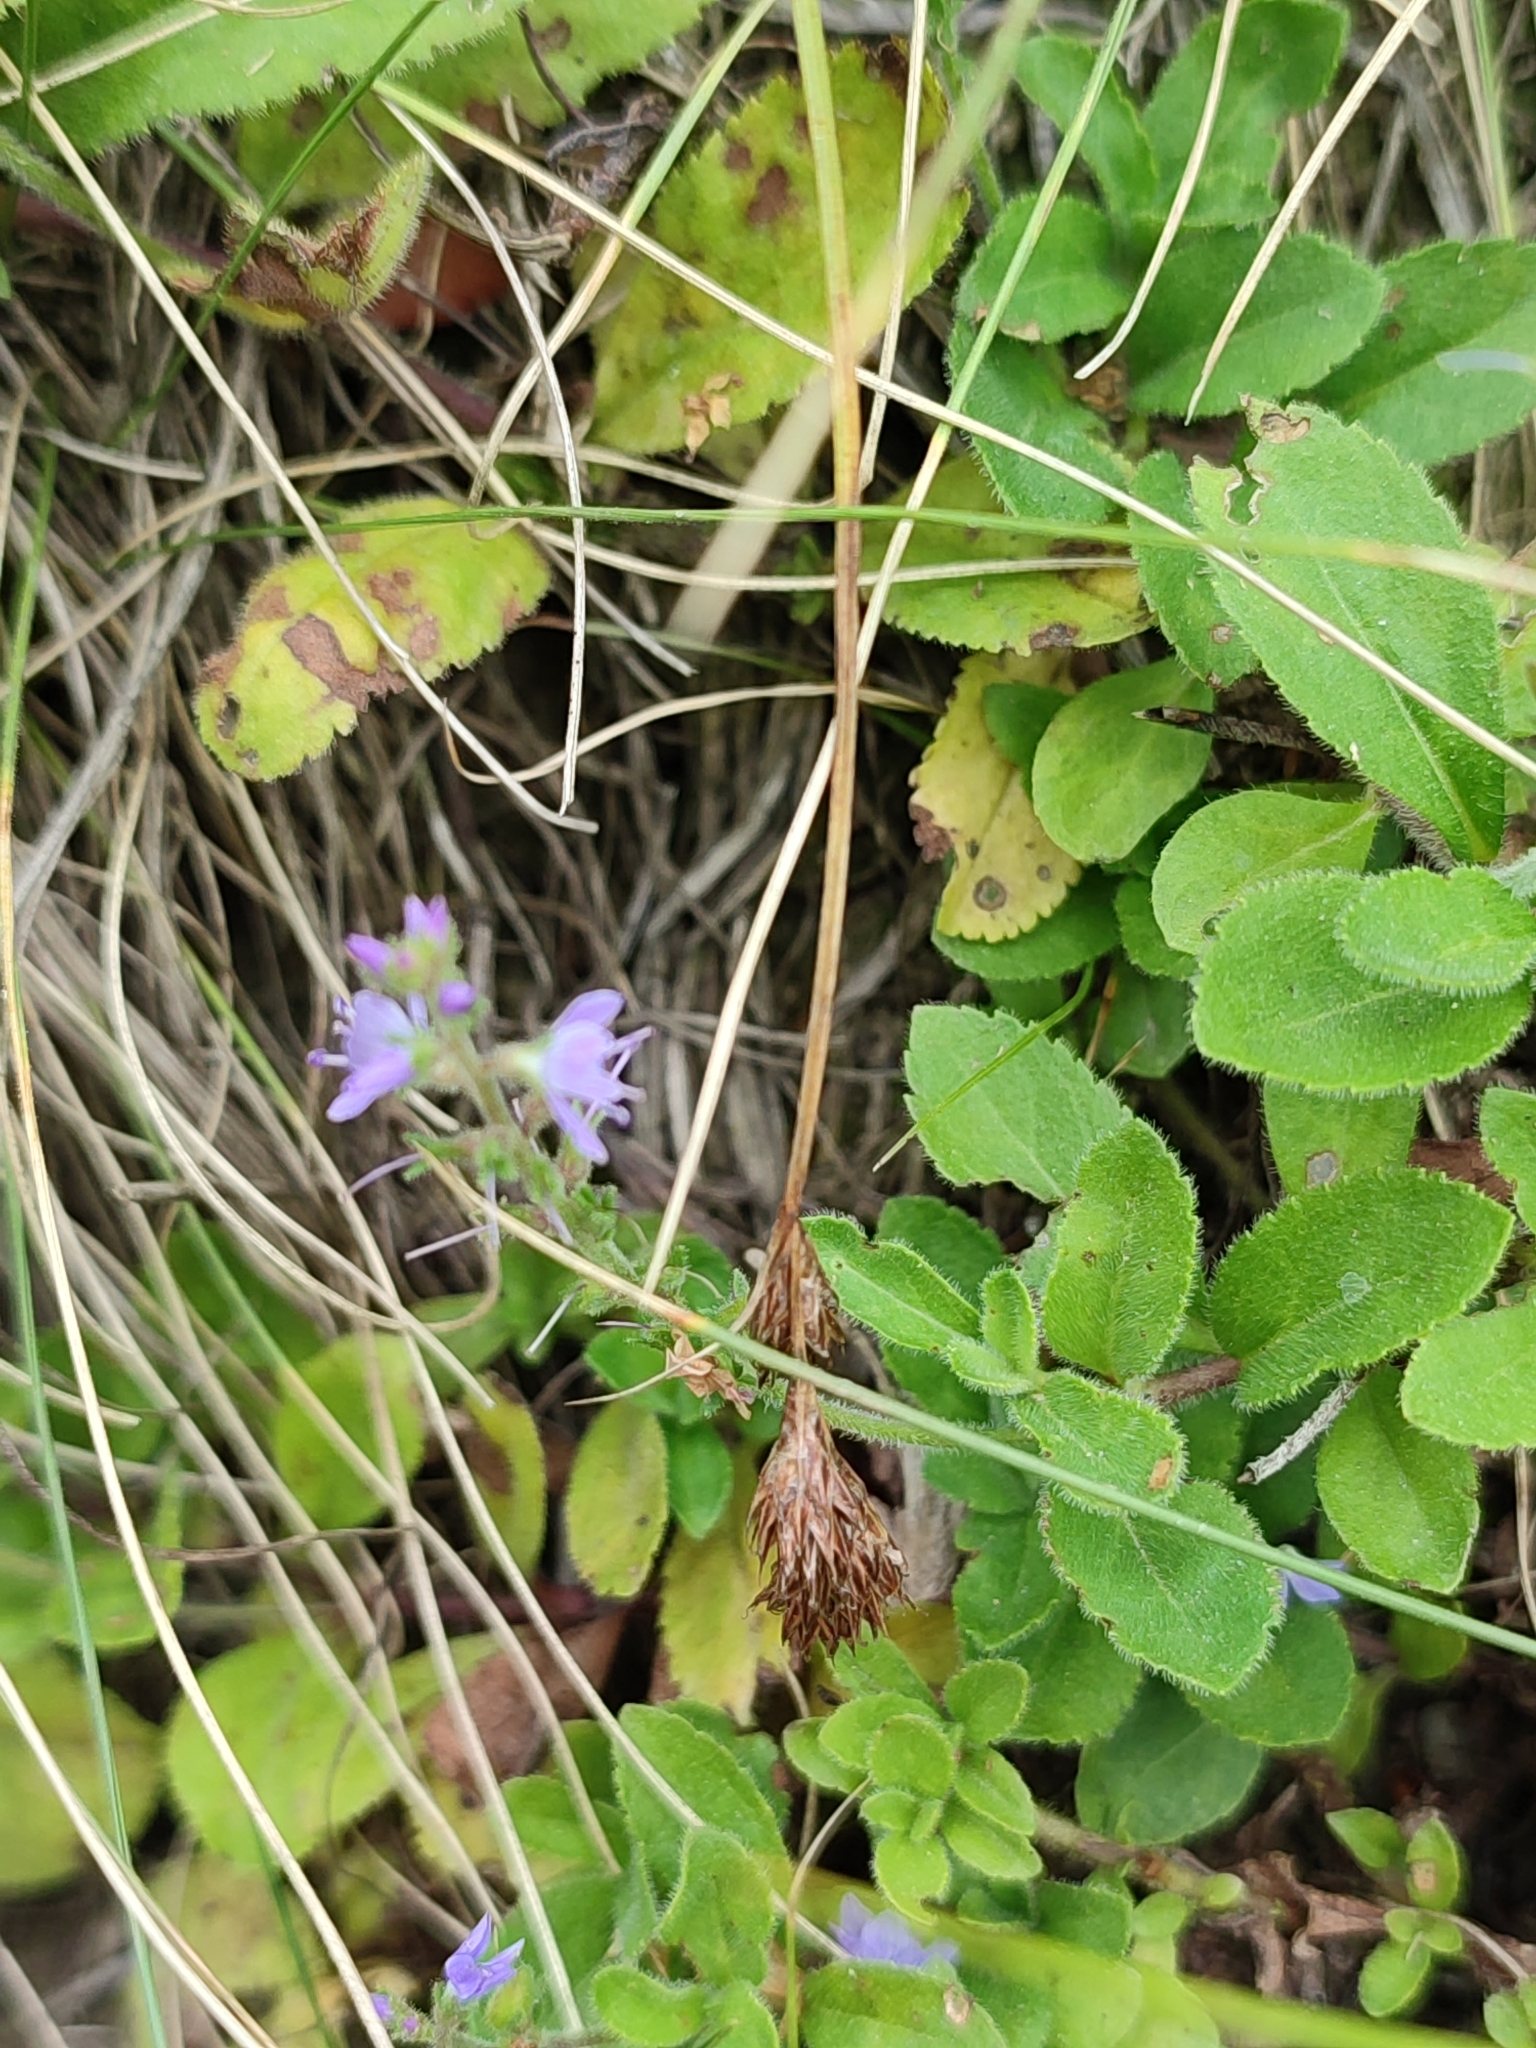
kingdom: Plantae
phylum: Tracheophyta
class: Magnoliopsida
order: Lamiales
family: Plantaginaceae
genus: Veronica
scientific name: Veronica officinalis
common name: Common speedwell
